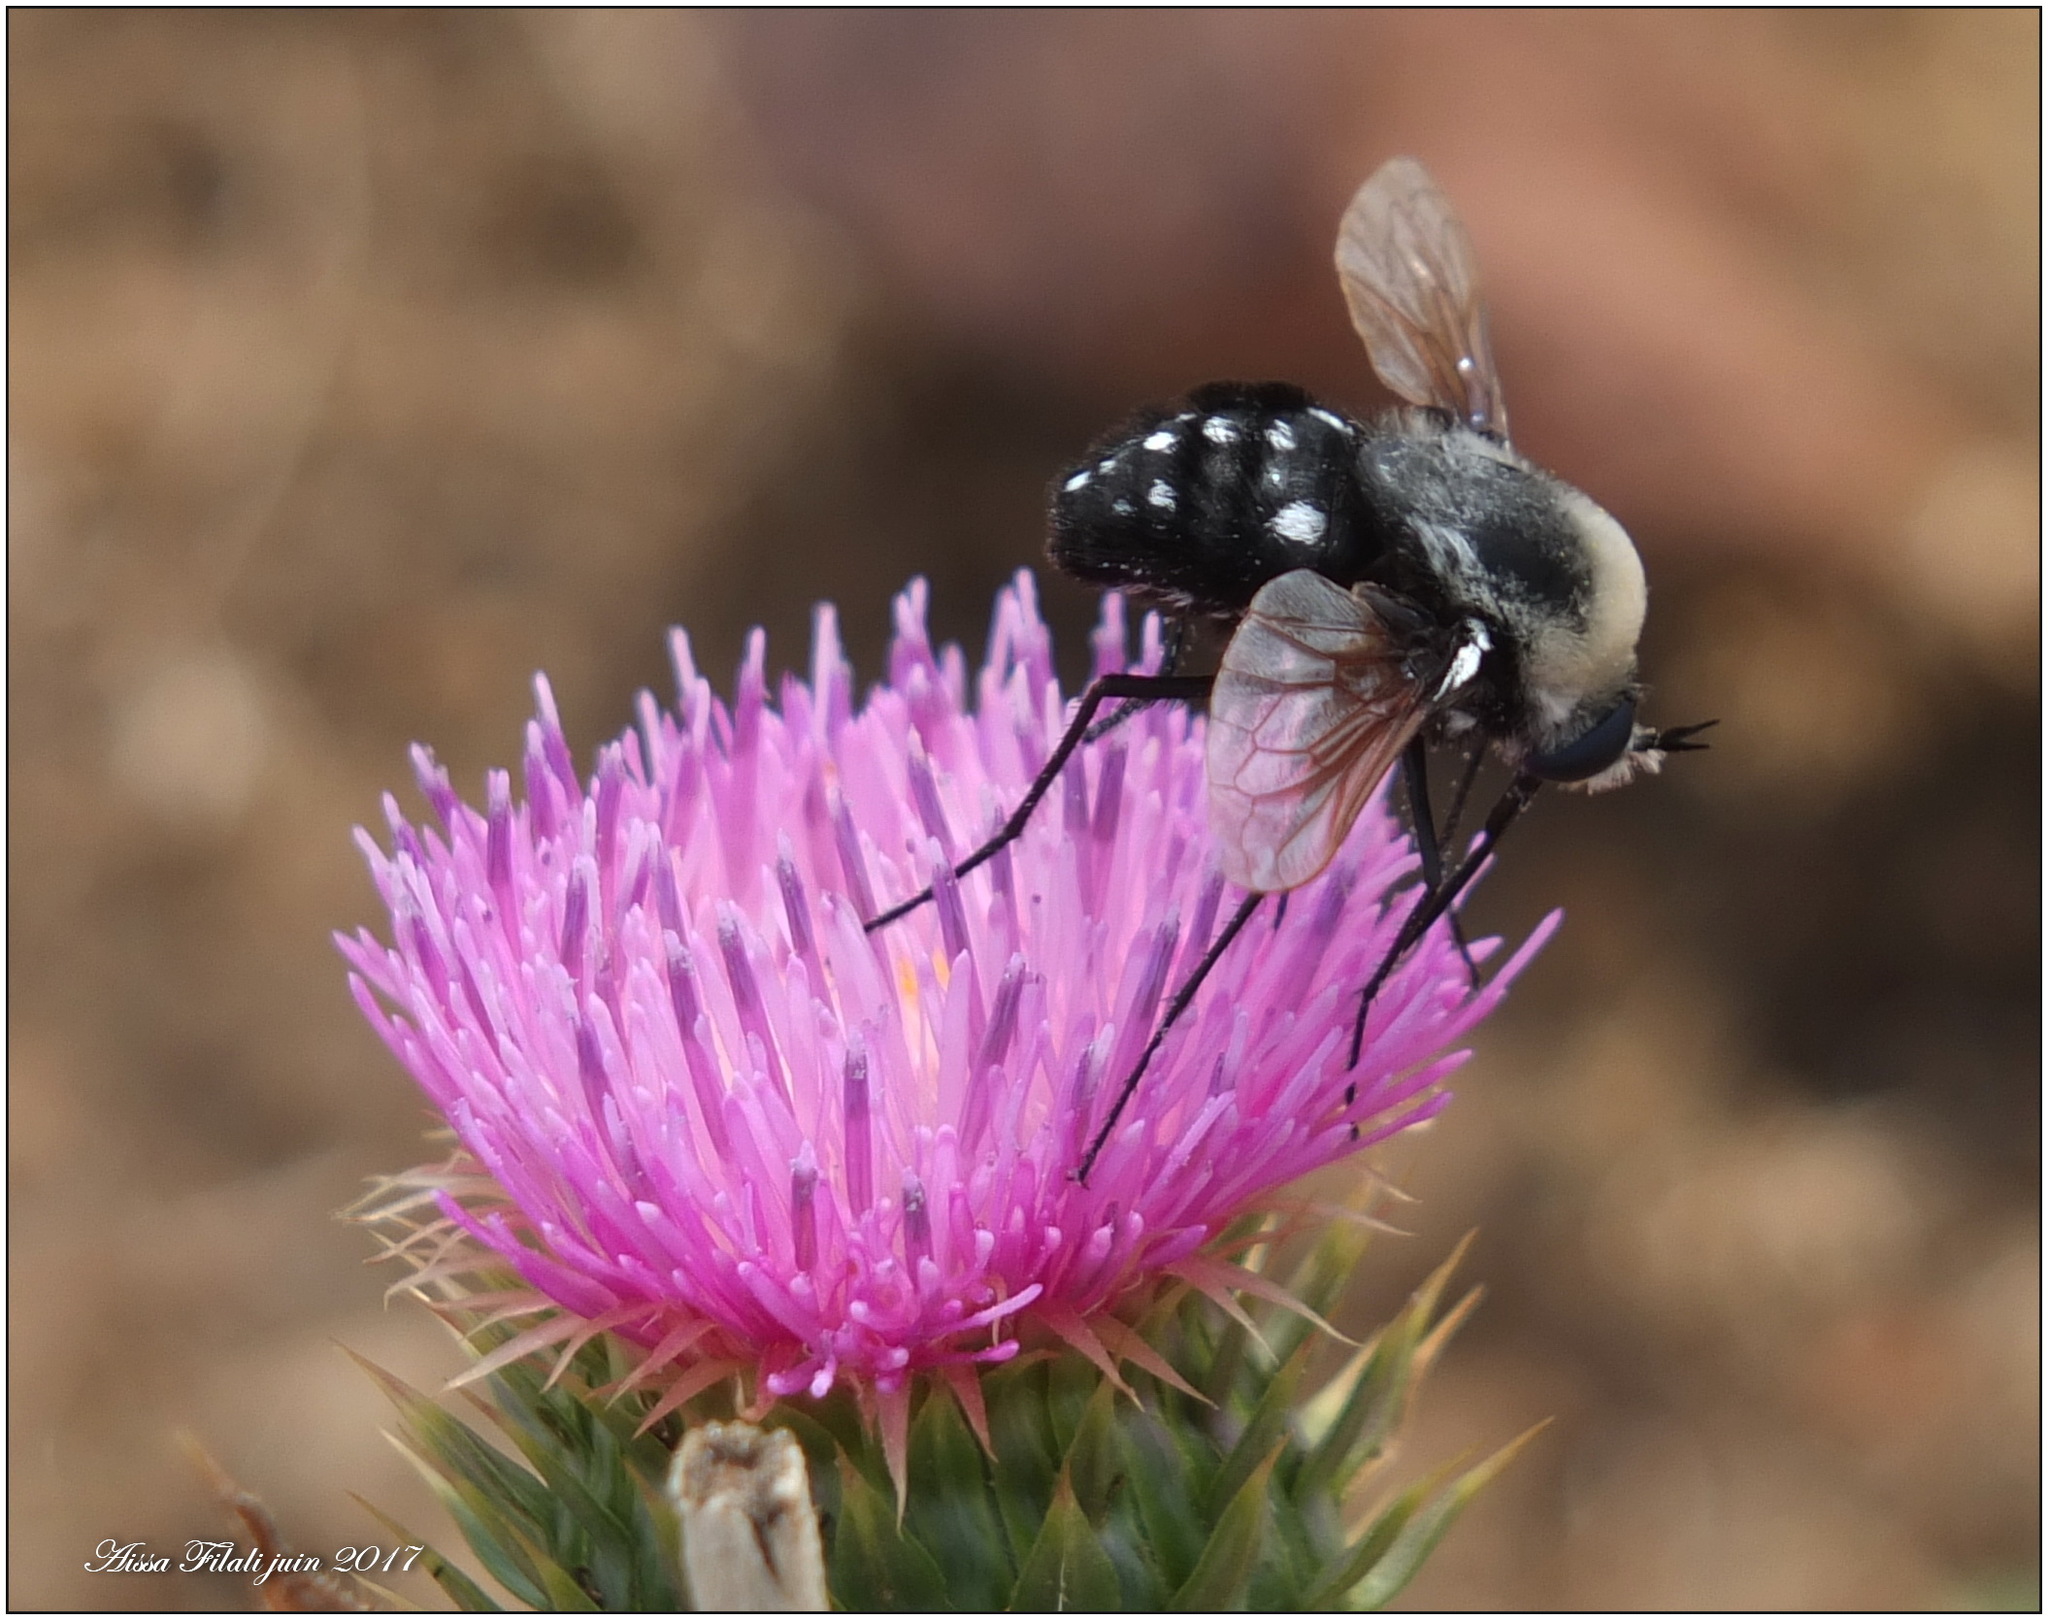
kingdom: Animalia
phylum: Arthropoda
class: Insecta
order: Diptera
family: Bombyliidae
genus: Bombomyia
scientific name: Bombomyia vertebralis
